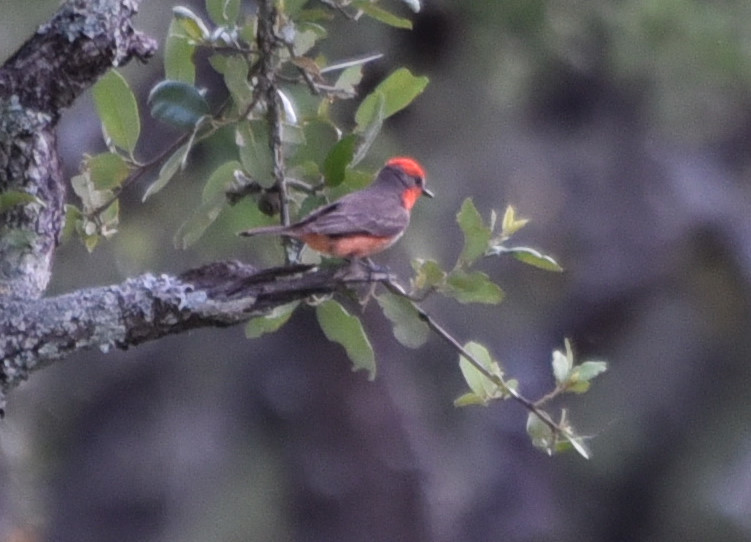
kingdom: Animalia
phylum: Chordata
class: Aves
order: Passeriformes
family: Tyrannidae
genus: Pyrocephalus
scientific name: Pyrocephalus rubinus
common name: Vermilion flycatcher
